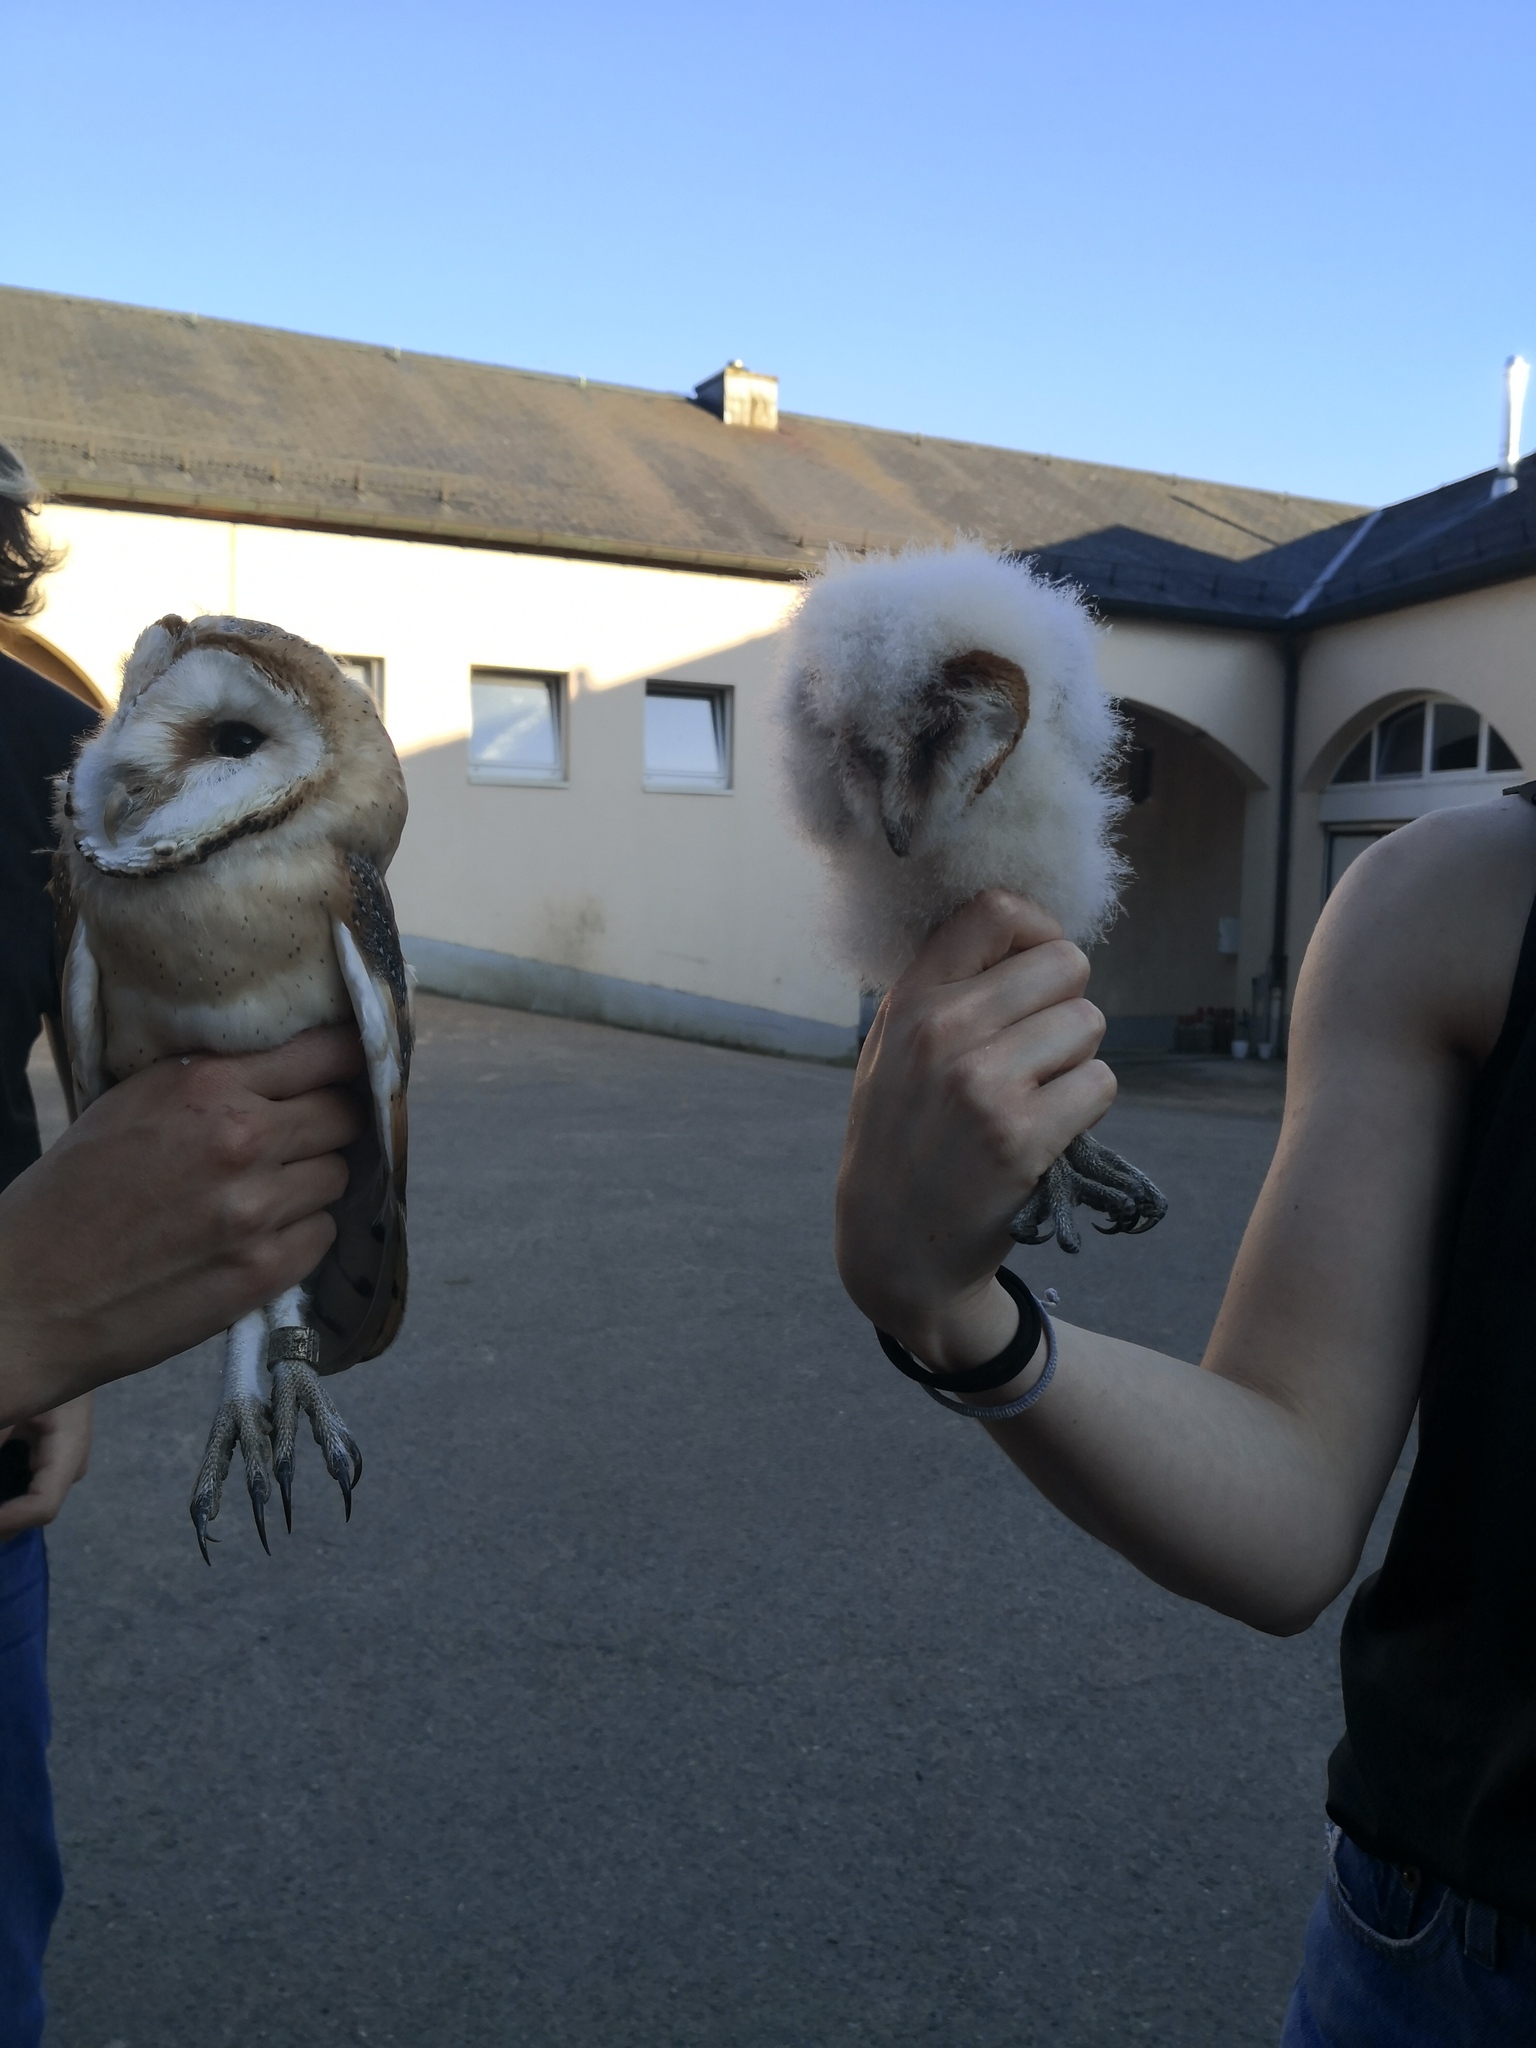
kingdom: Animalia
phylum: Chordata
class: Aves
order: Strigiformes
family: Tytonidae
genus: Tyto
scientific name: Tyto alba
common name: Barn owl
